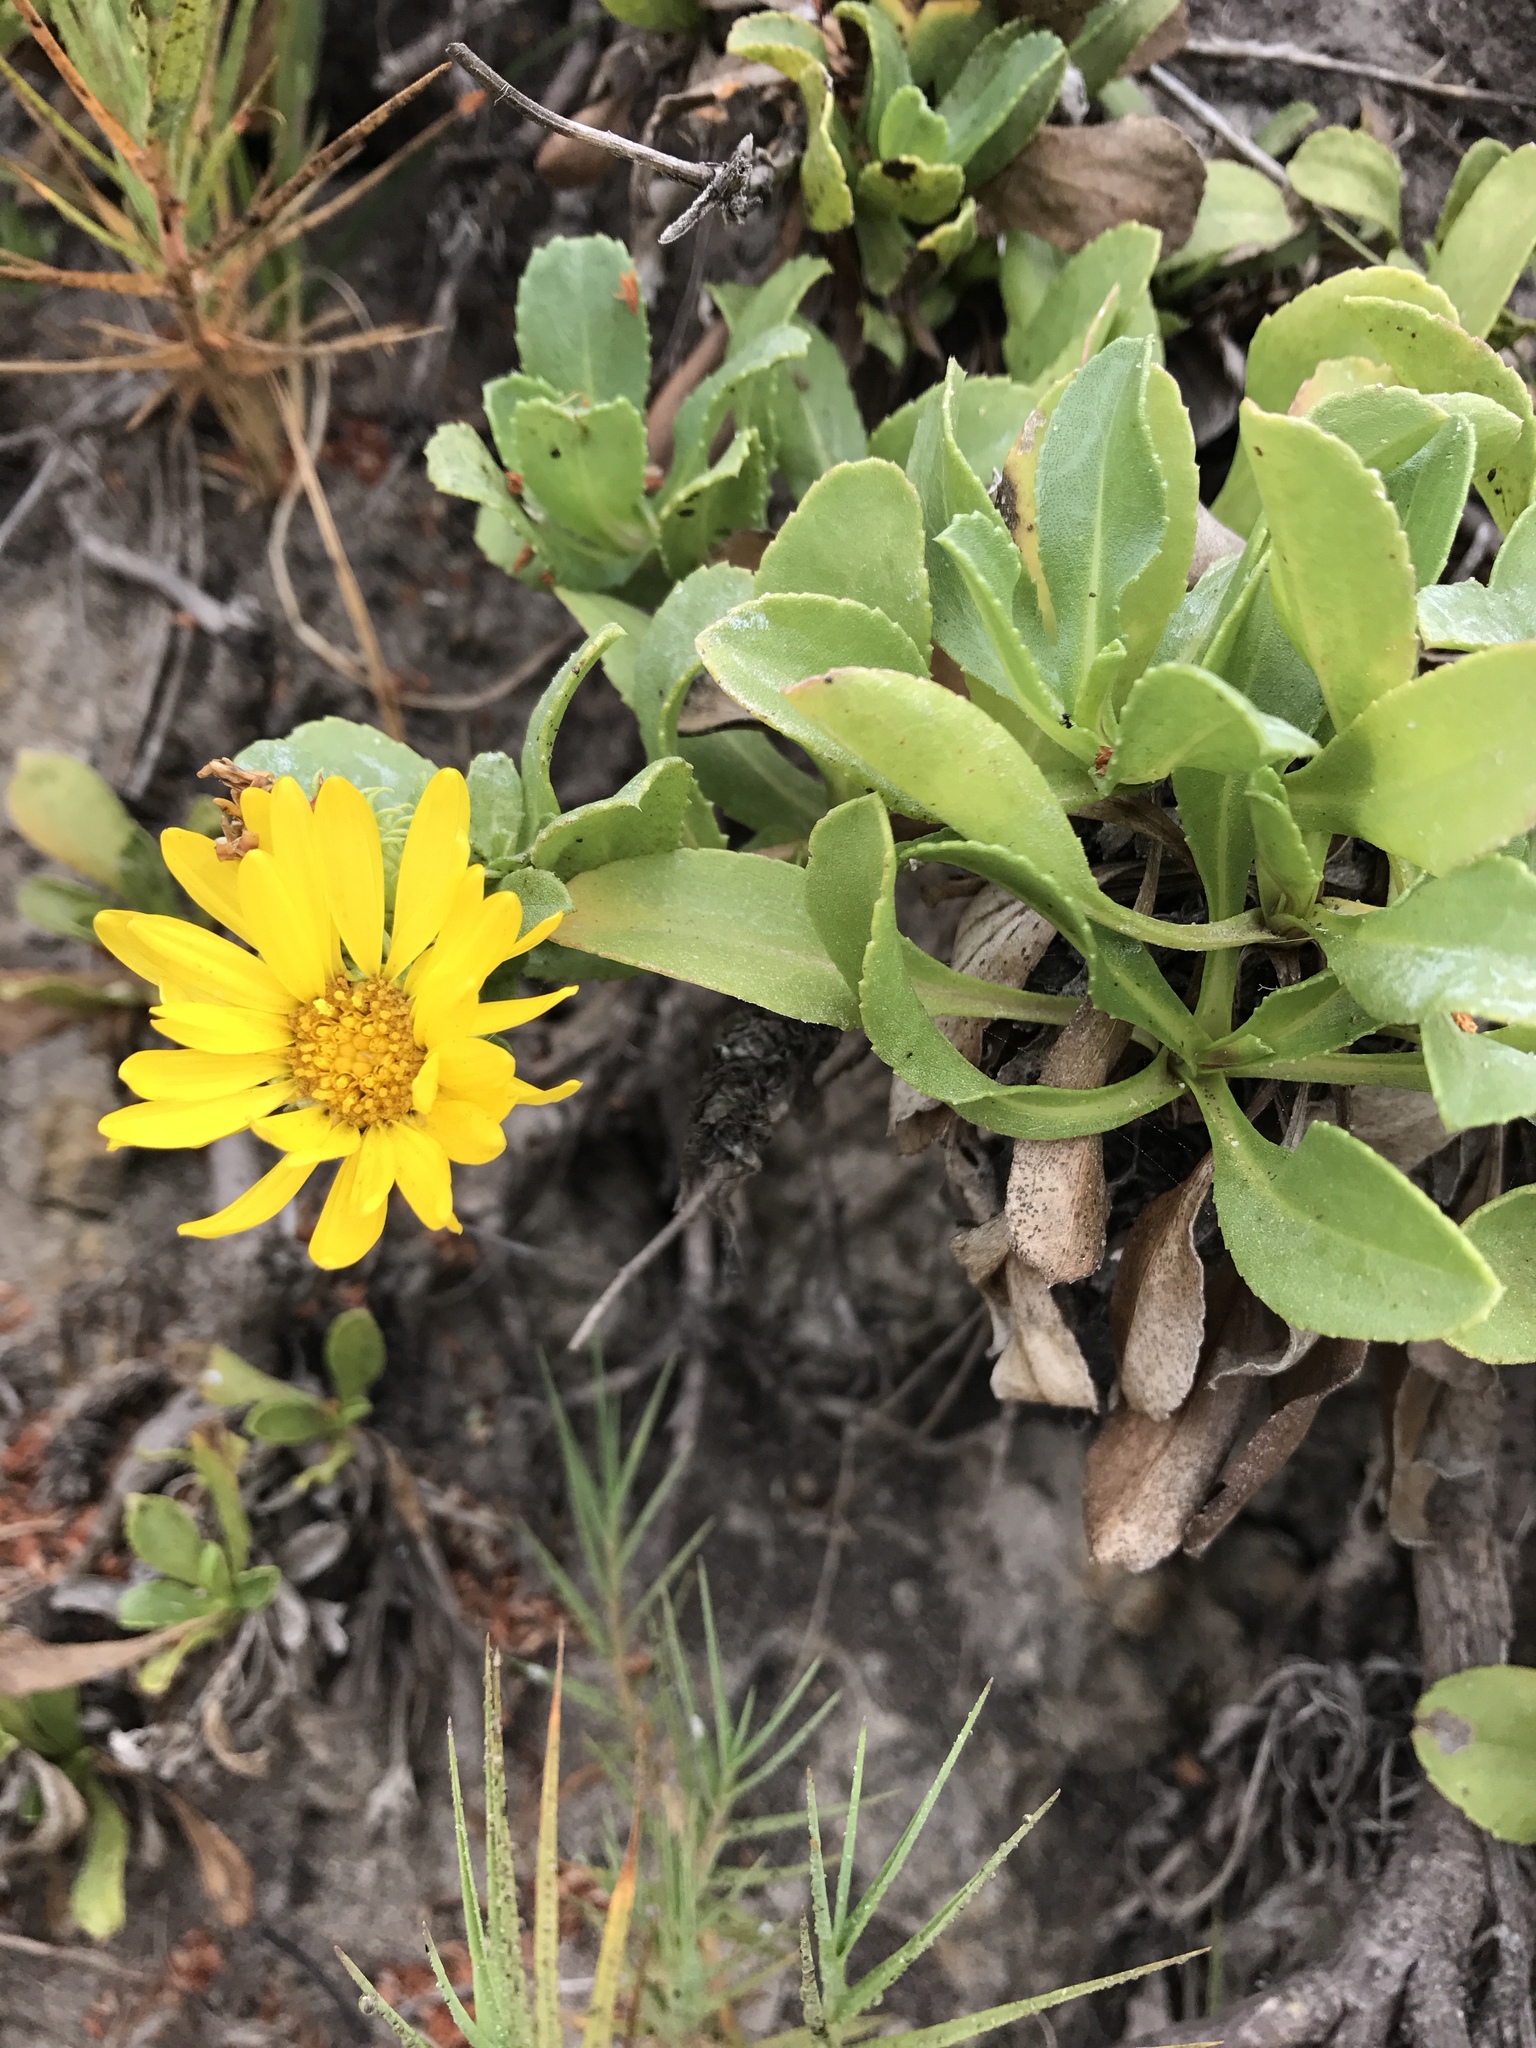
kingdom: Plantae
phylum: Tracheophyta
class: Magnoliopsida
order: Asterales
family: Asteraceae
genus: Grindelia
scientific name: Grindelia hirsutula
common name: Hairy gumweed
